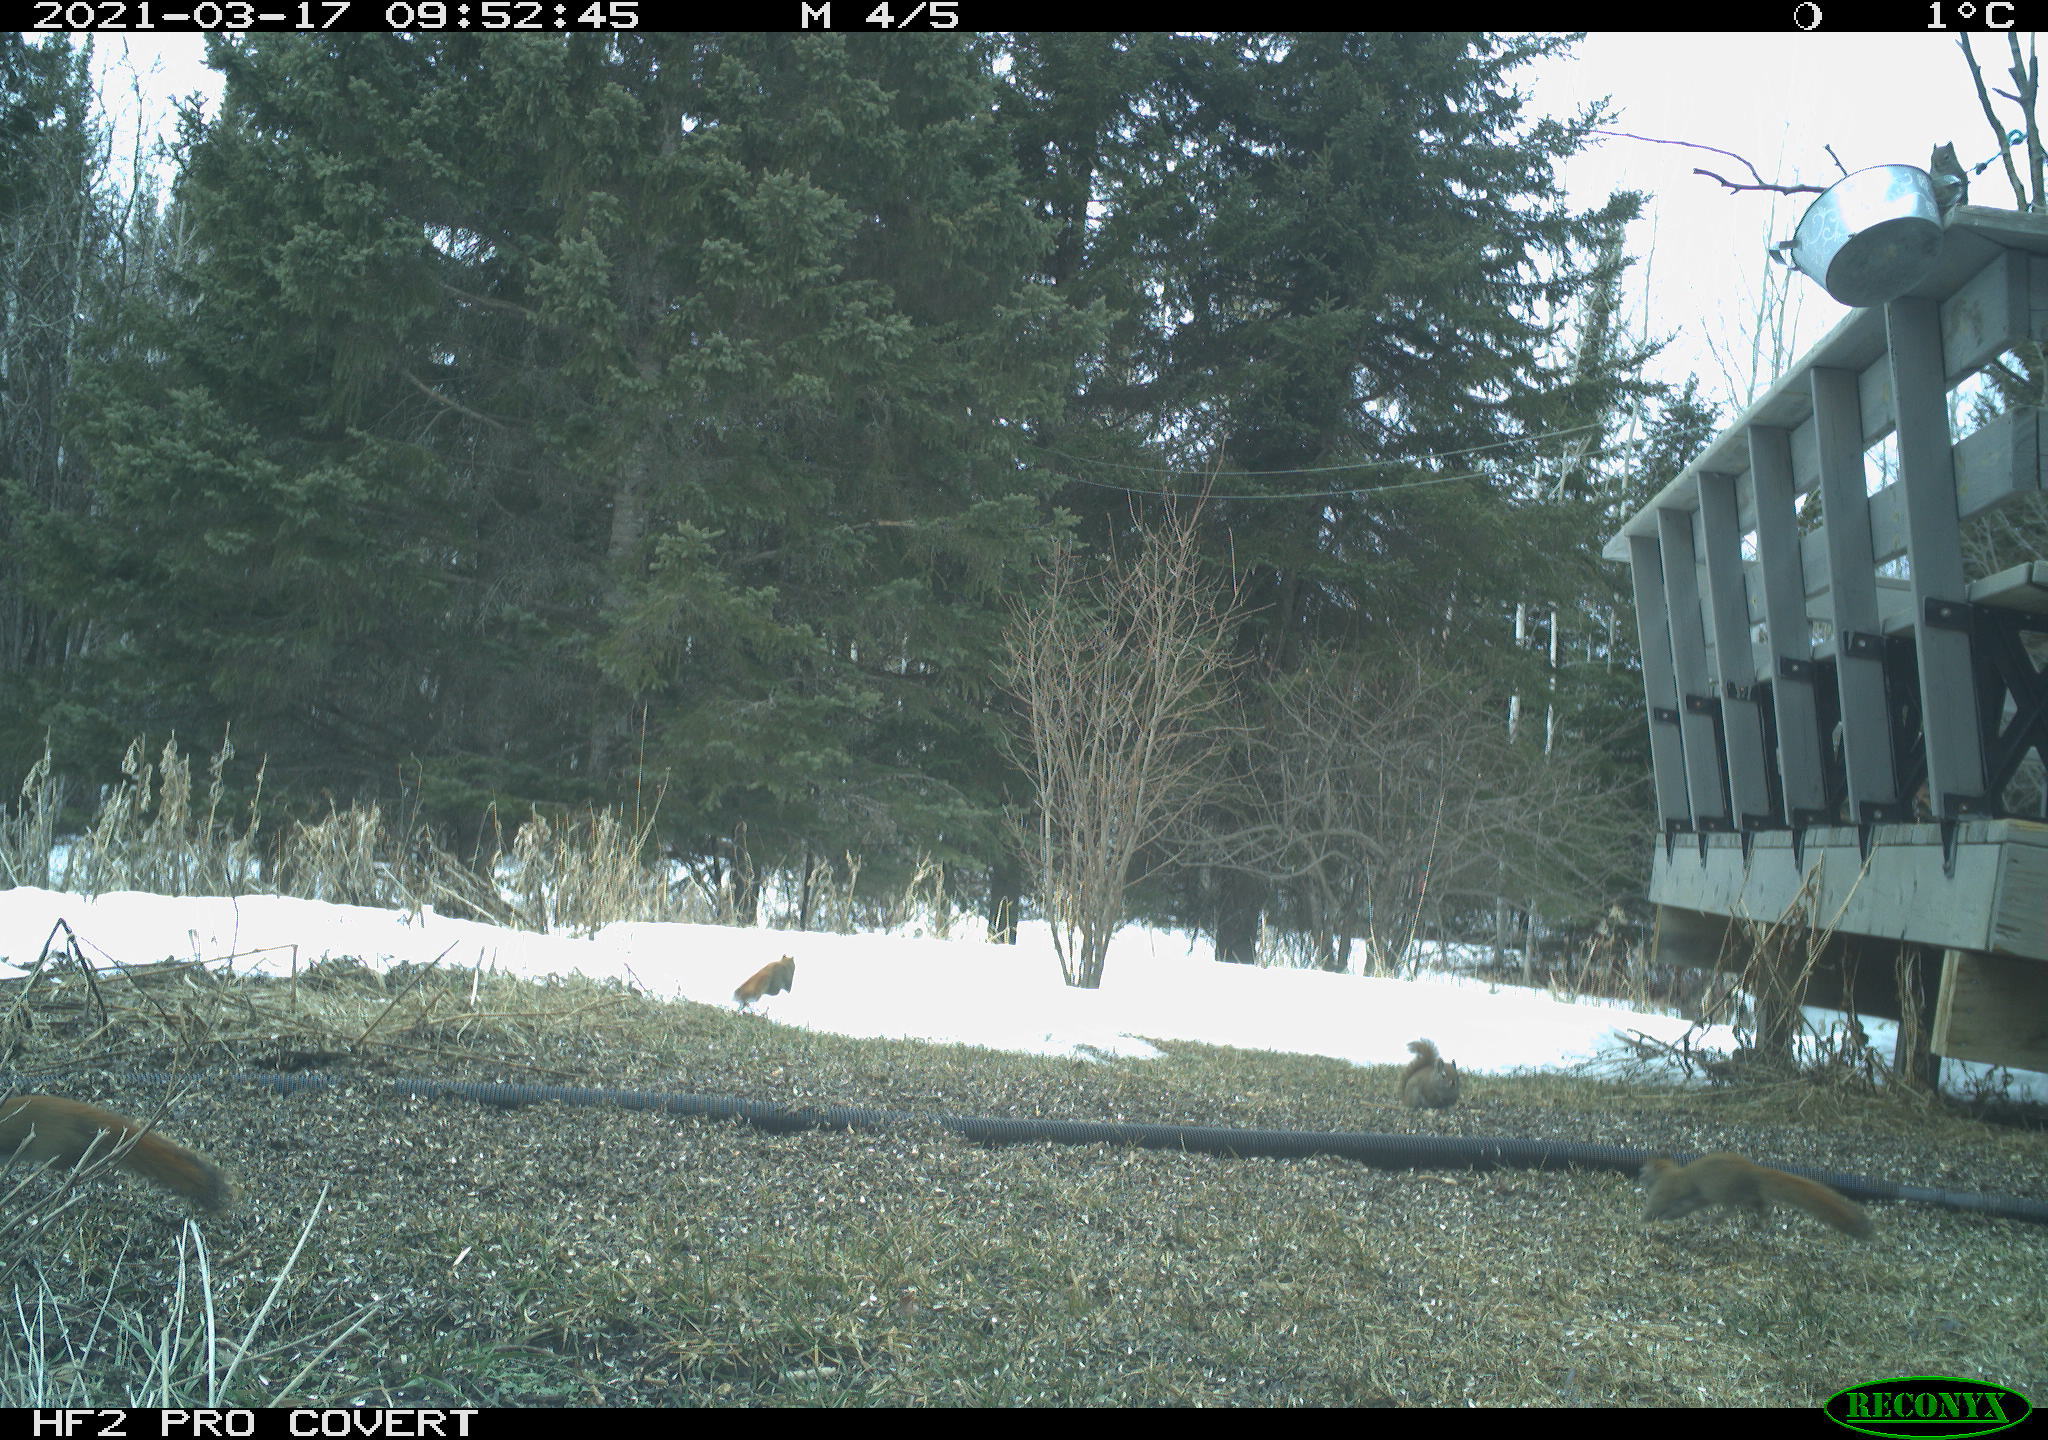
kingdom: Animalia
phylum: Chordata
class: Mammalia
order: Rodentia
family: Sciuridae
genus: Tamiasciurus
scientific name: Tamiasciurus hudsonicus
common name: Red squirrel
